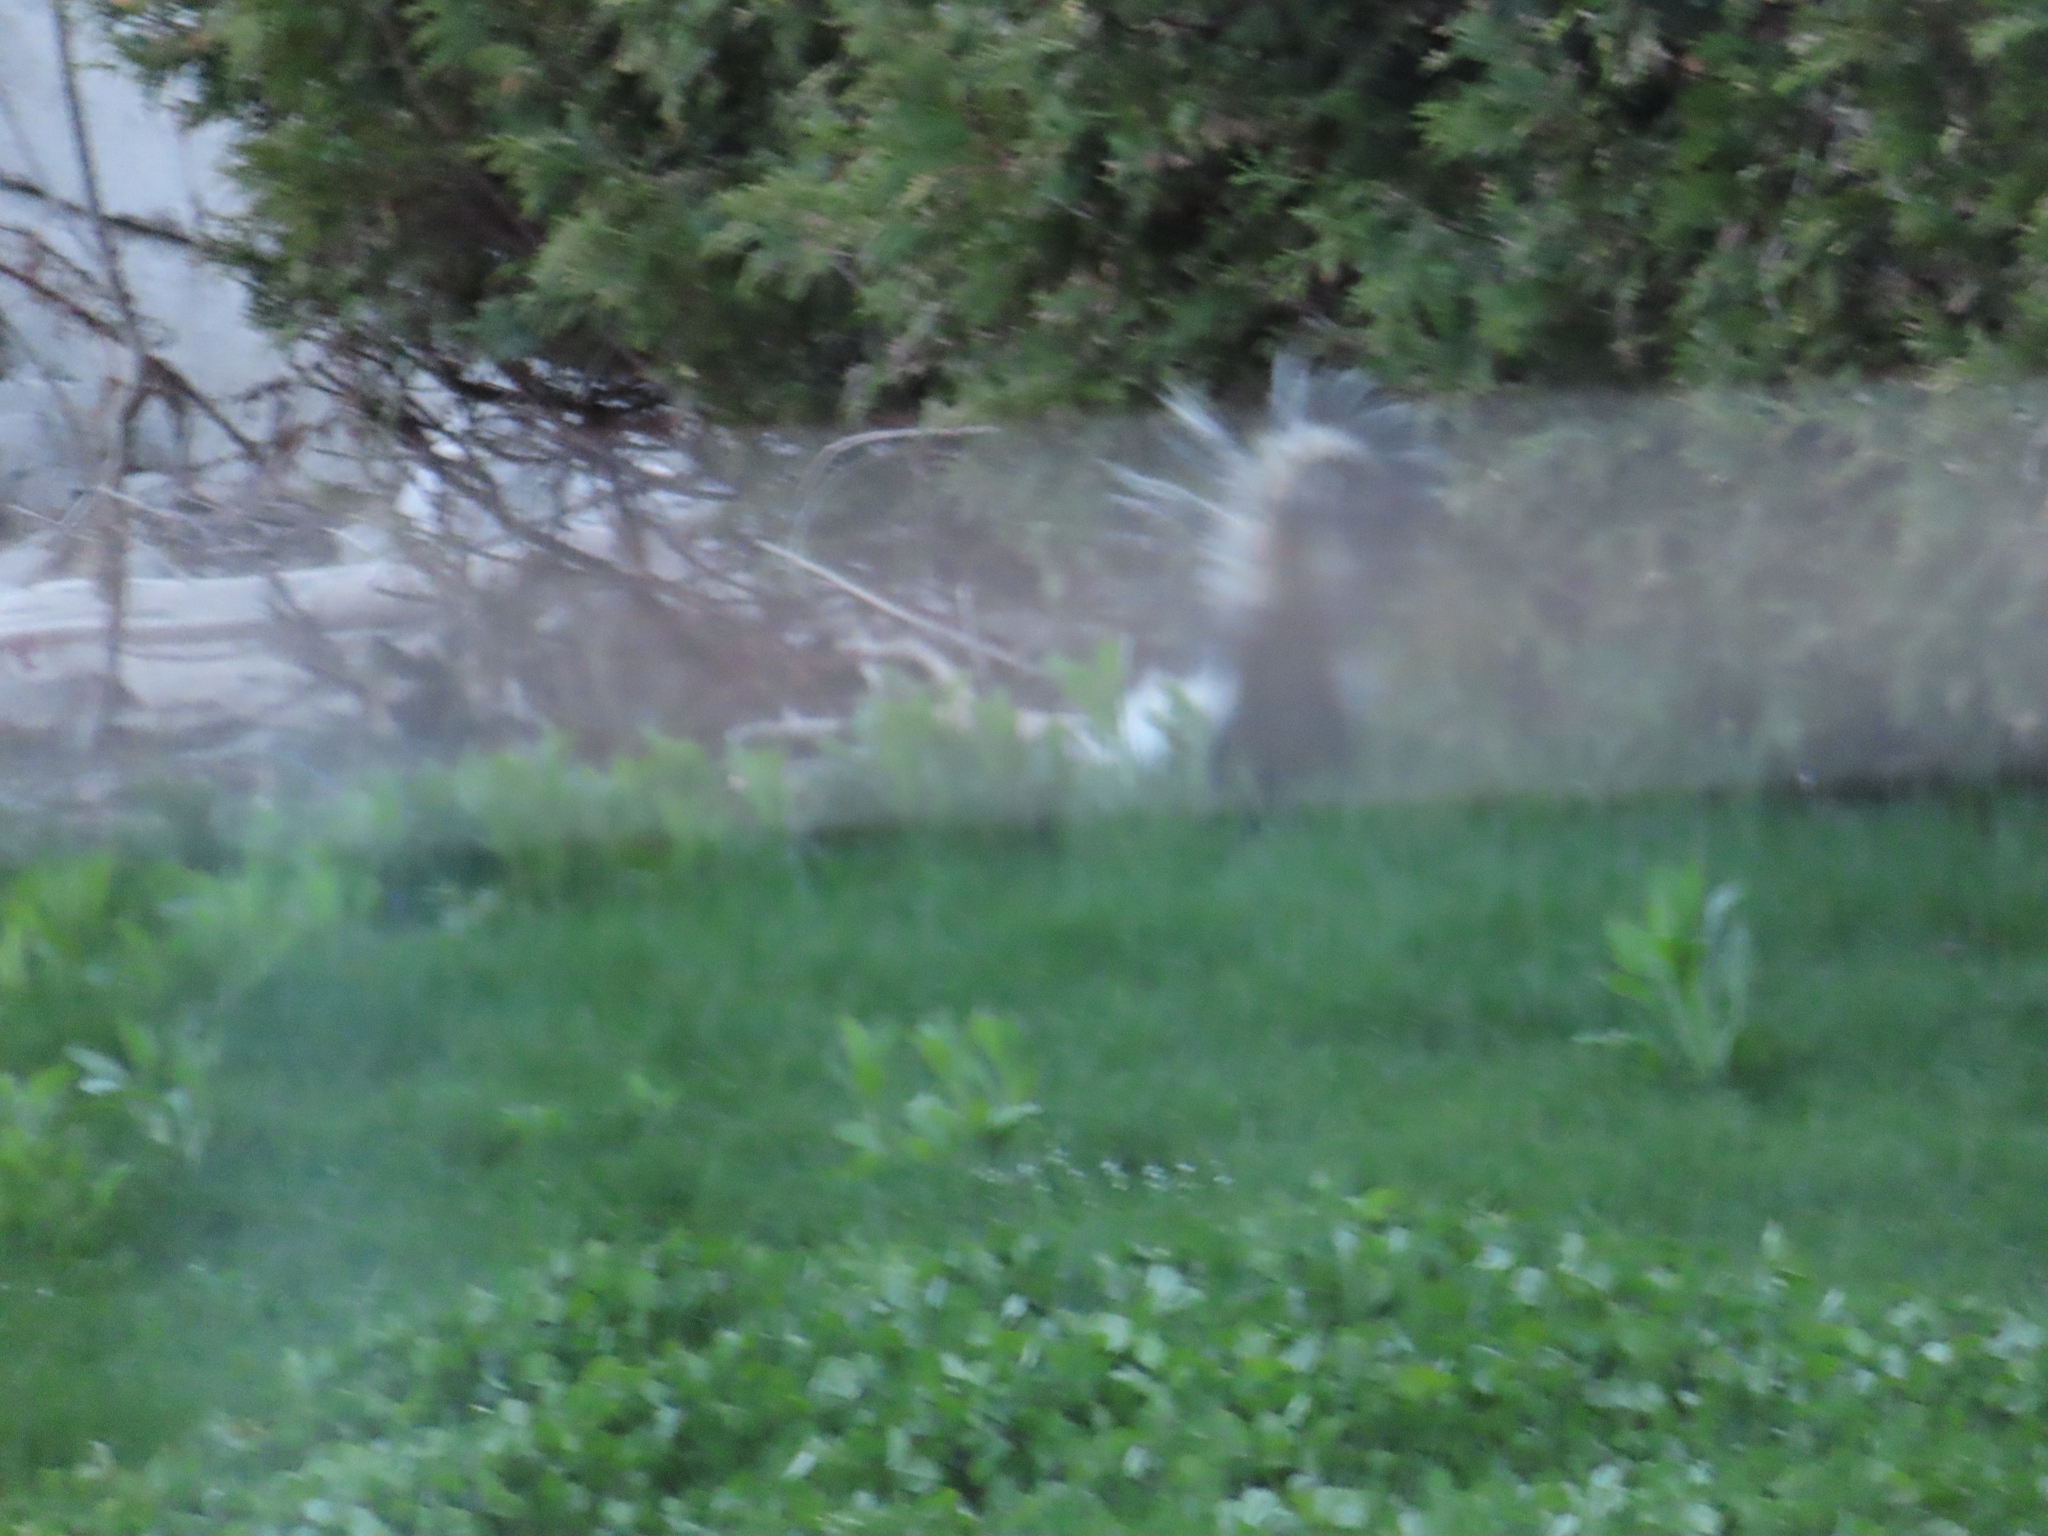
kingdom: Animalia
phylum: Chordata
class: Mammalia
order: Carnivora
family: Mephitidae
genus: Mephitis
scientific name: Mephitis mephitis
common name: Striped skunk
